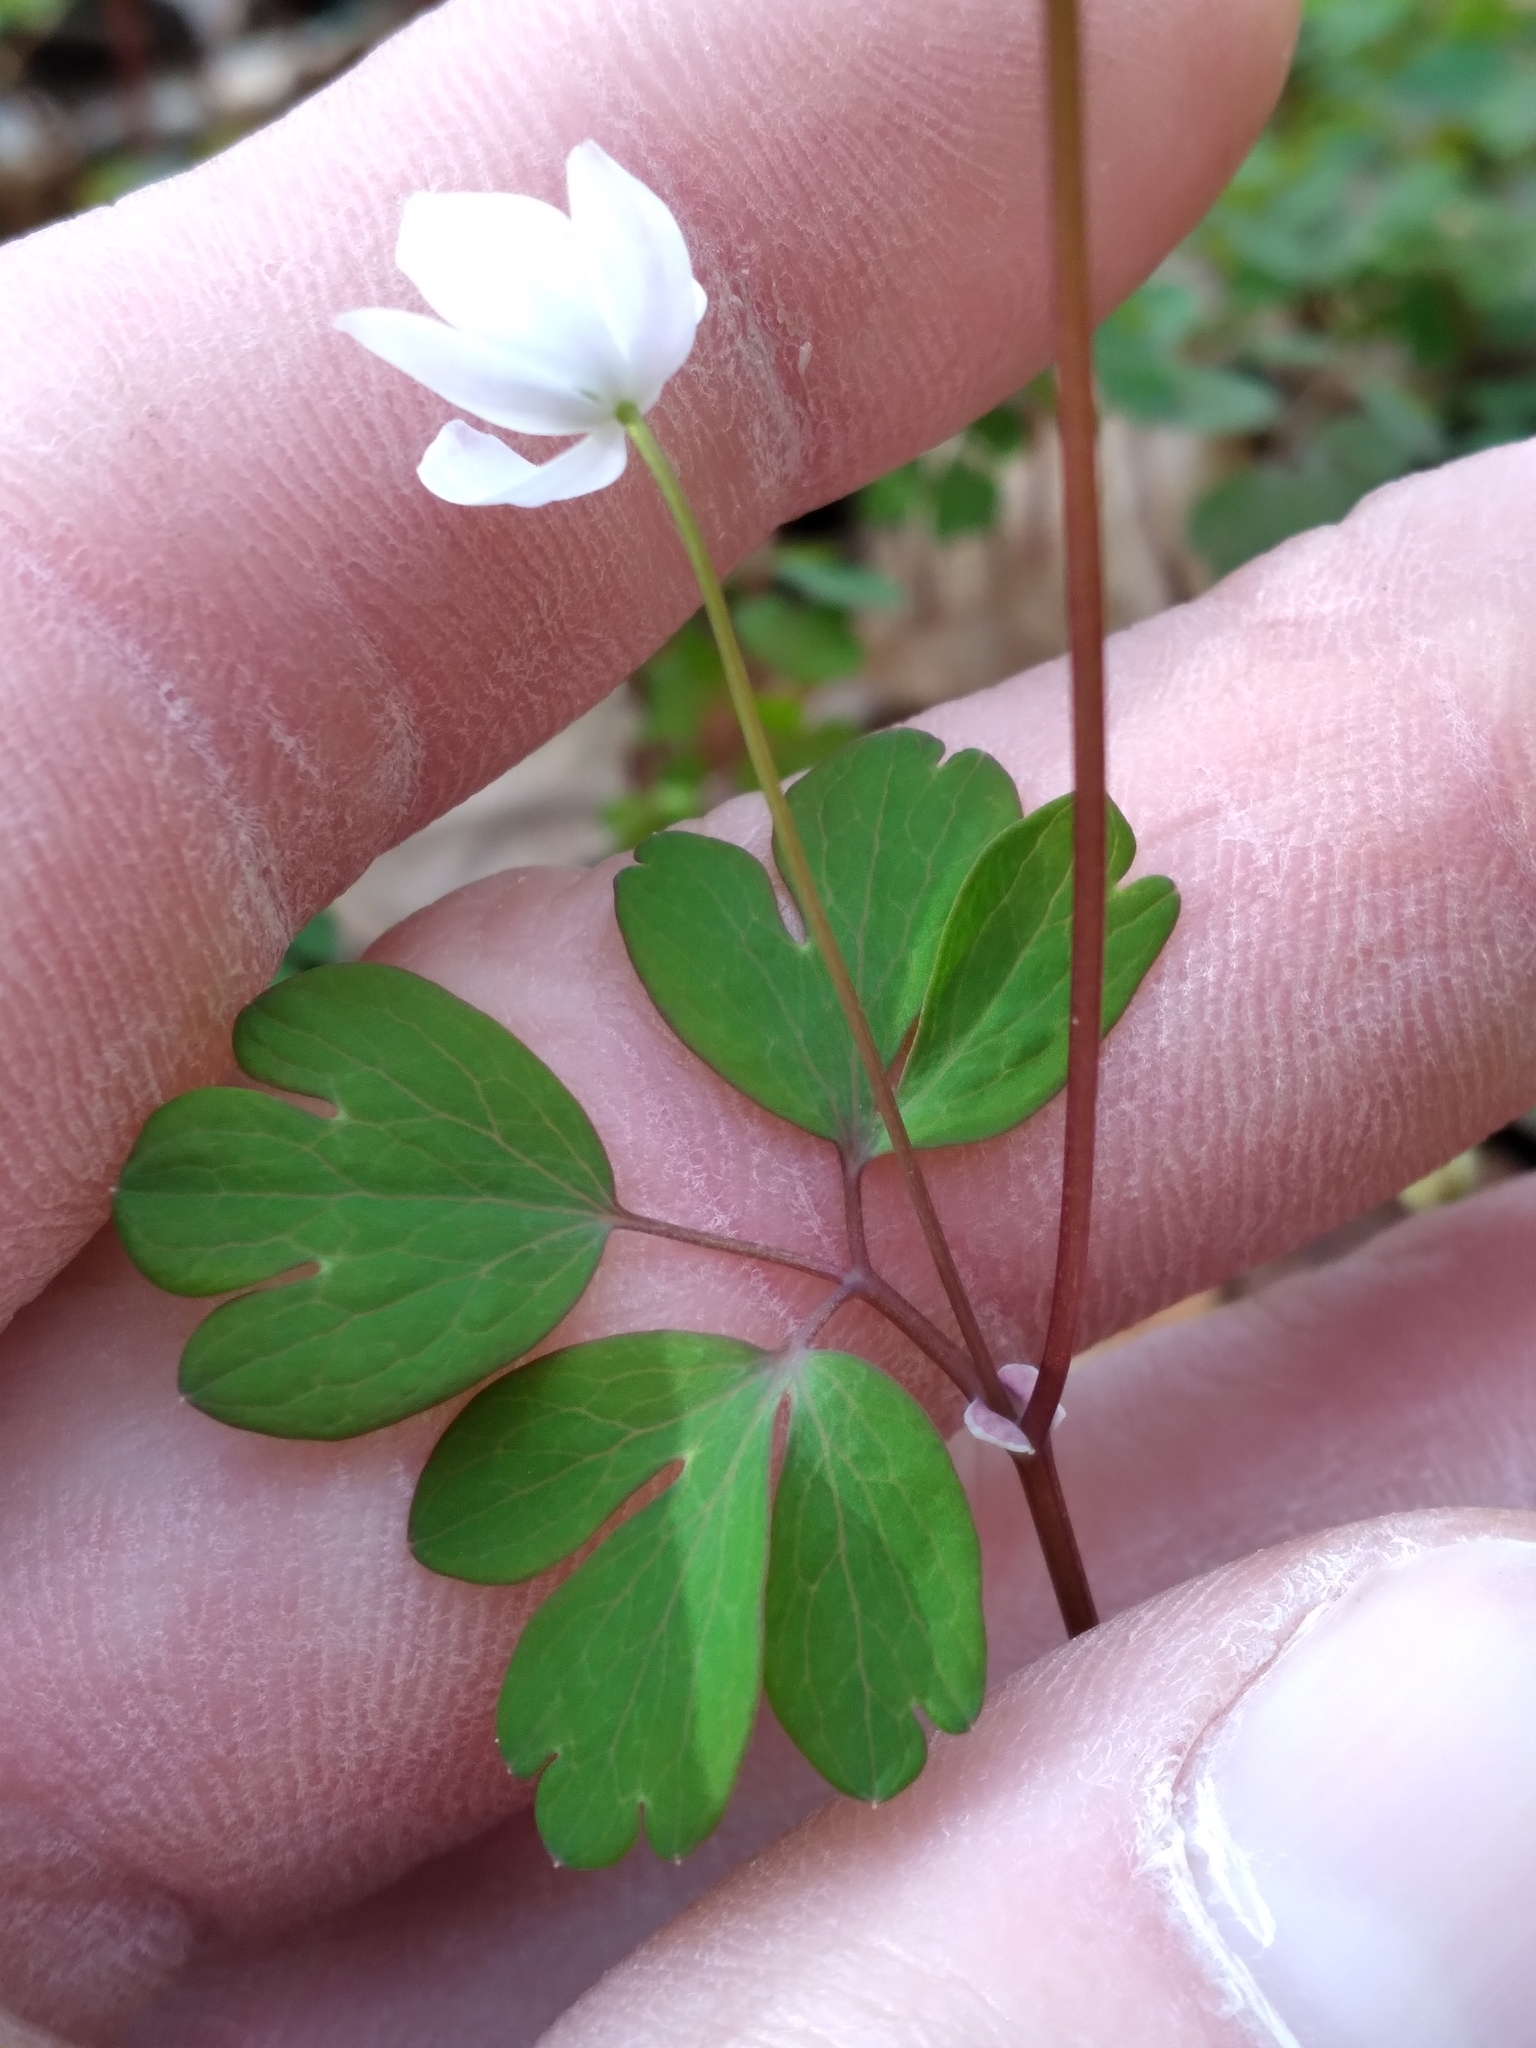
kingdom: Plantae
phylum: Tracheophyta
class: Magnoliopsida
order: Ranunculales
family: Ranunculaceae
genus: Enemion
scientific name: Enemion biternatum
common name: Eastern false rue-anemone
